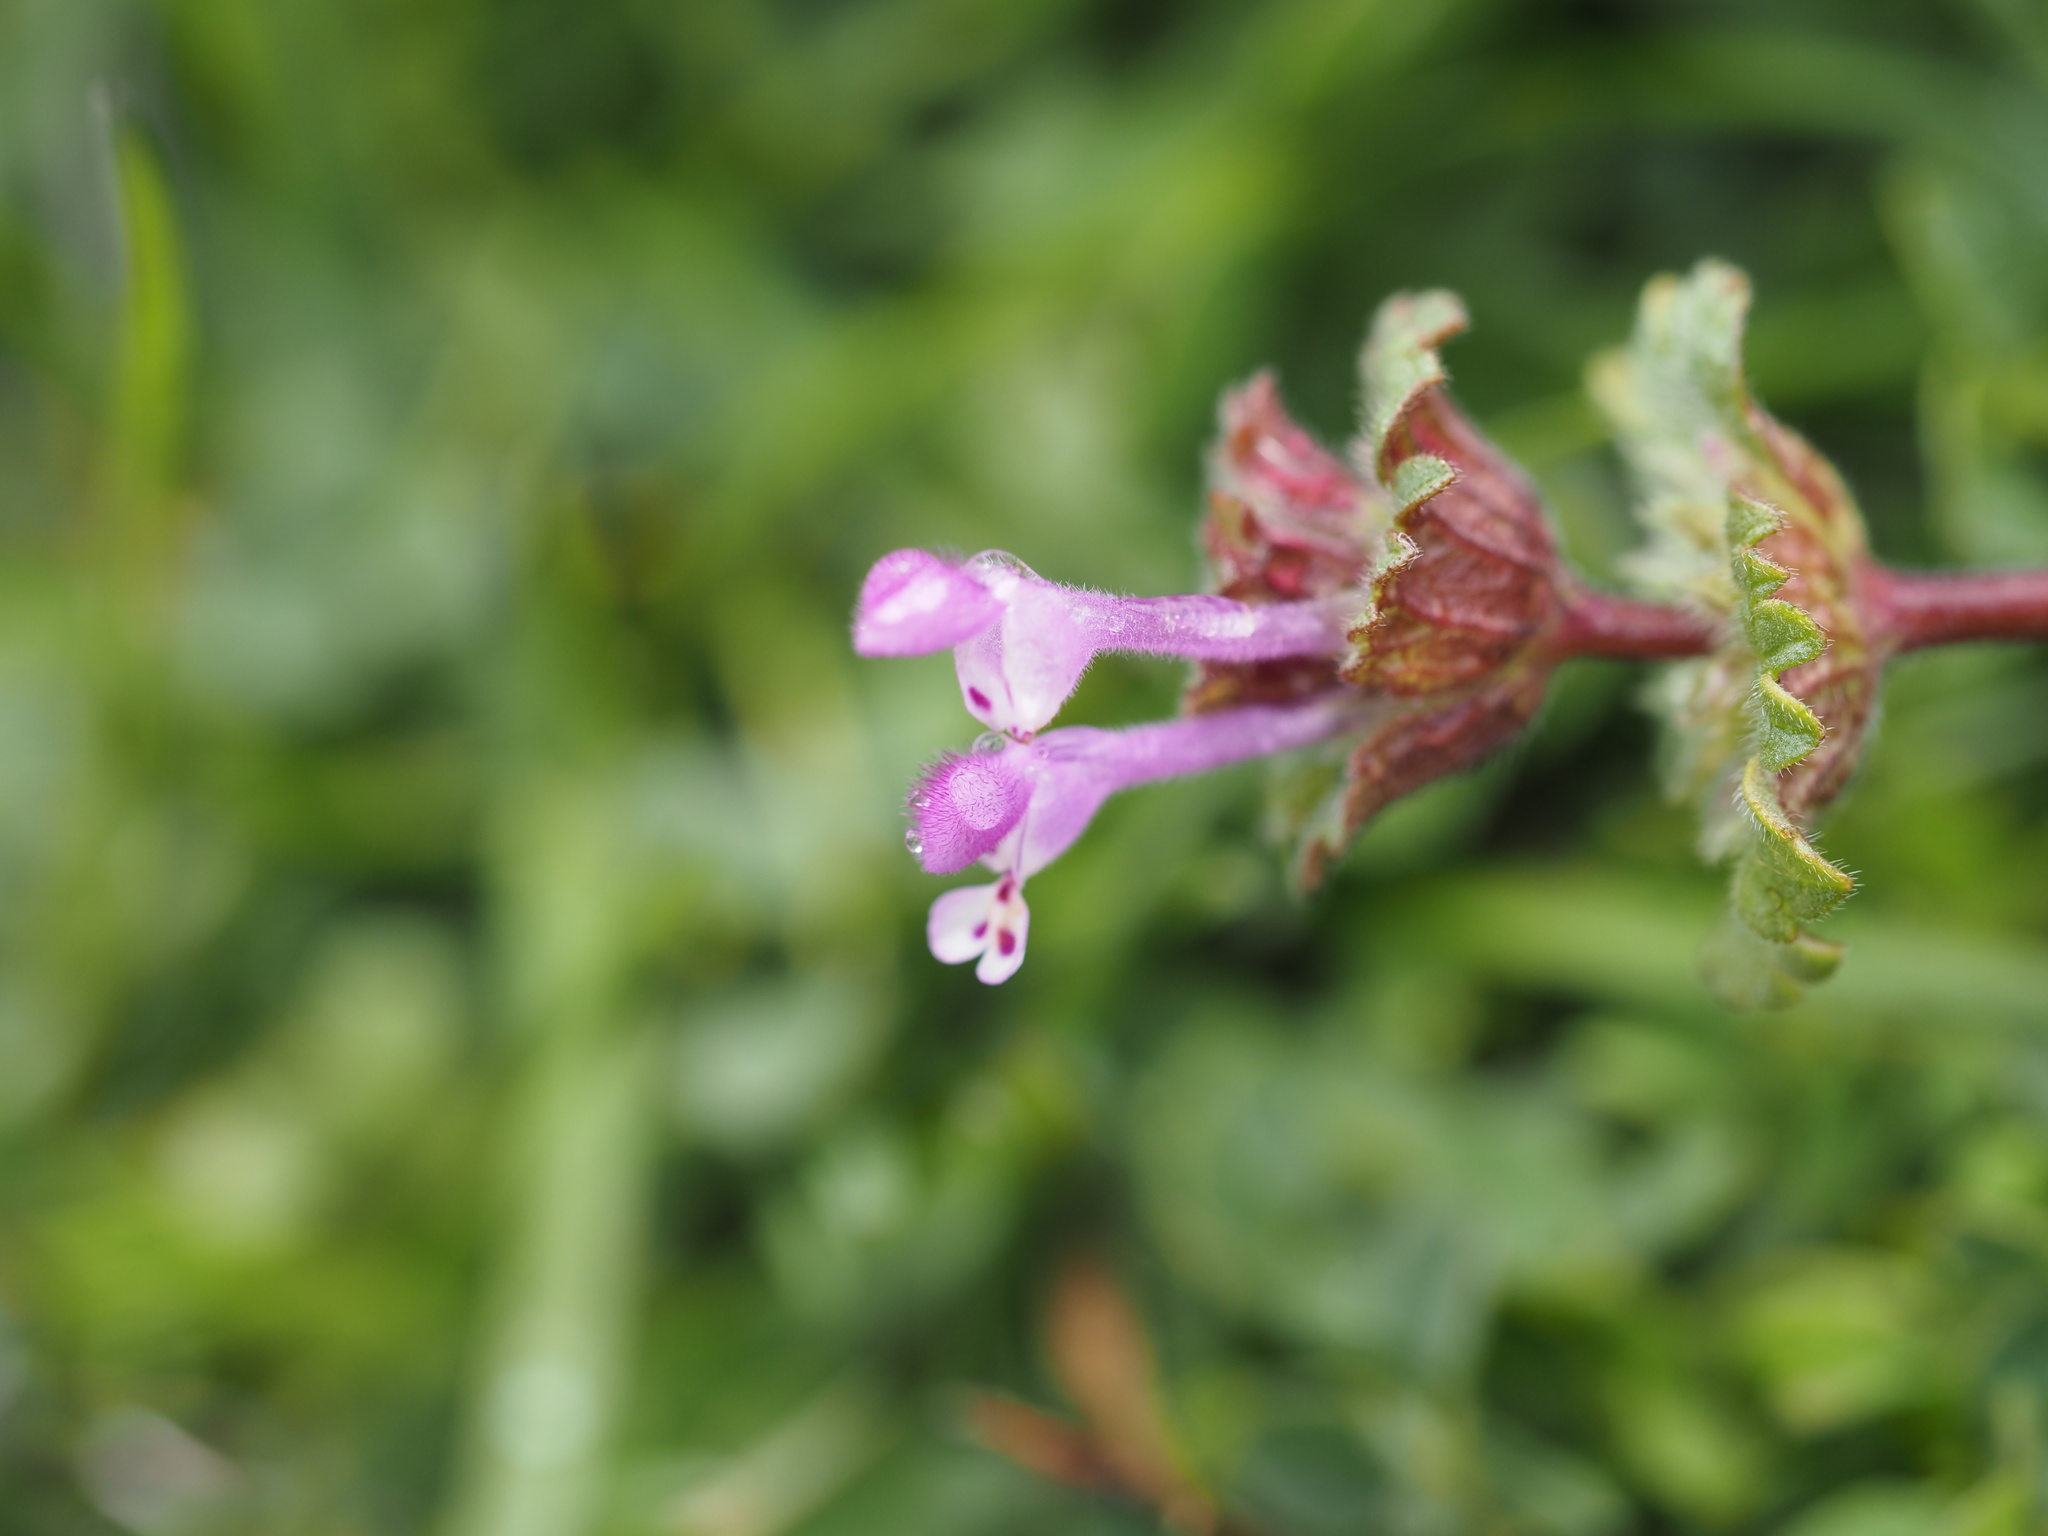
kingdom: Plantae
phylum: Tracheophyta
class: Magnoliopsida
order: Lamiales
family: Lamiaceae
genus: Lamium
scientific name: Lamium amplexicaule
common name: Henbit dead-nettle
